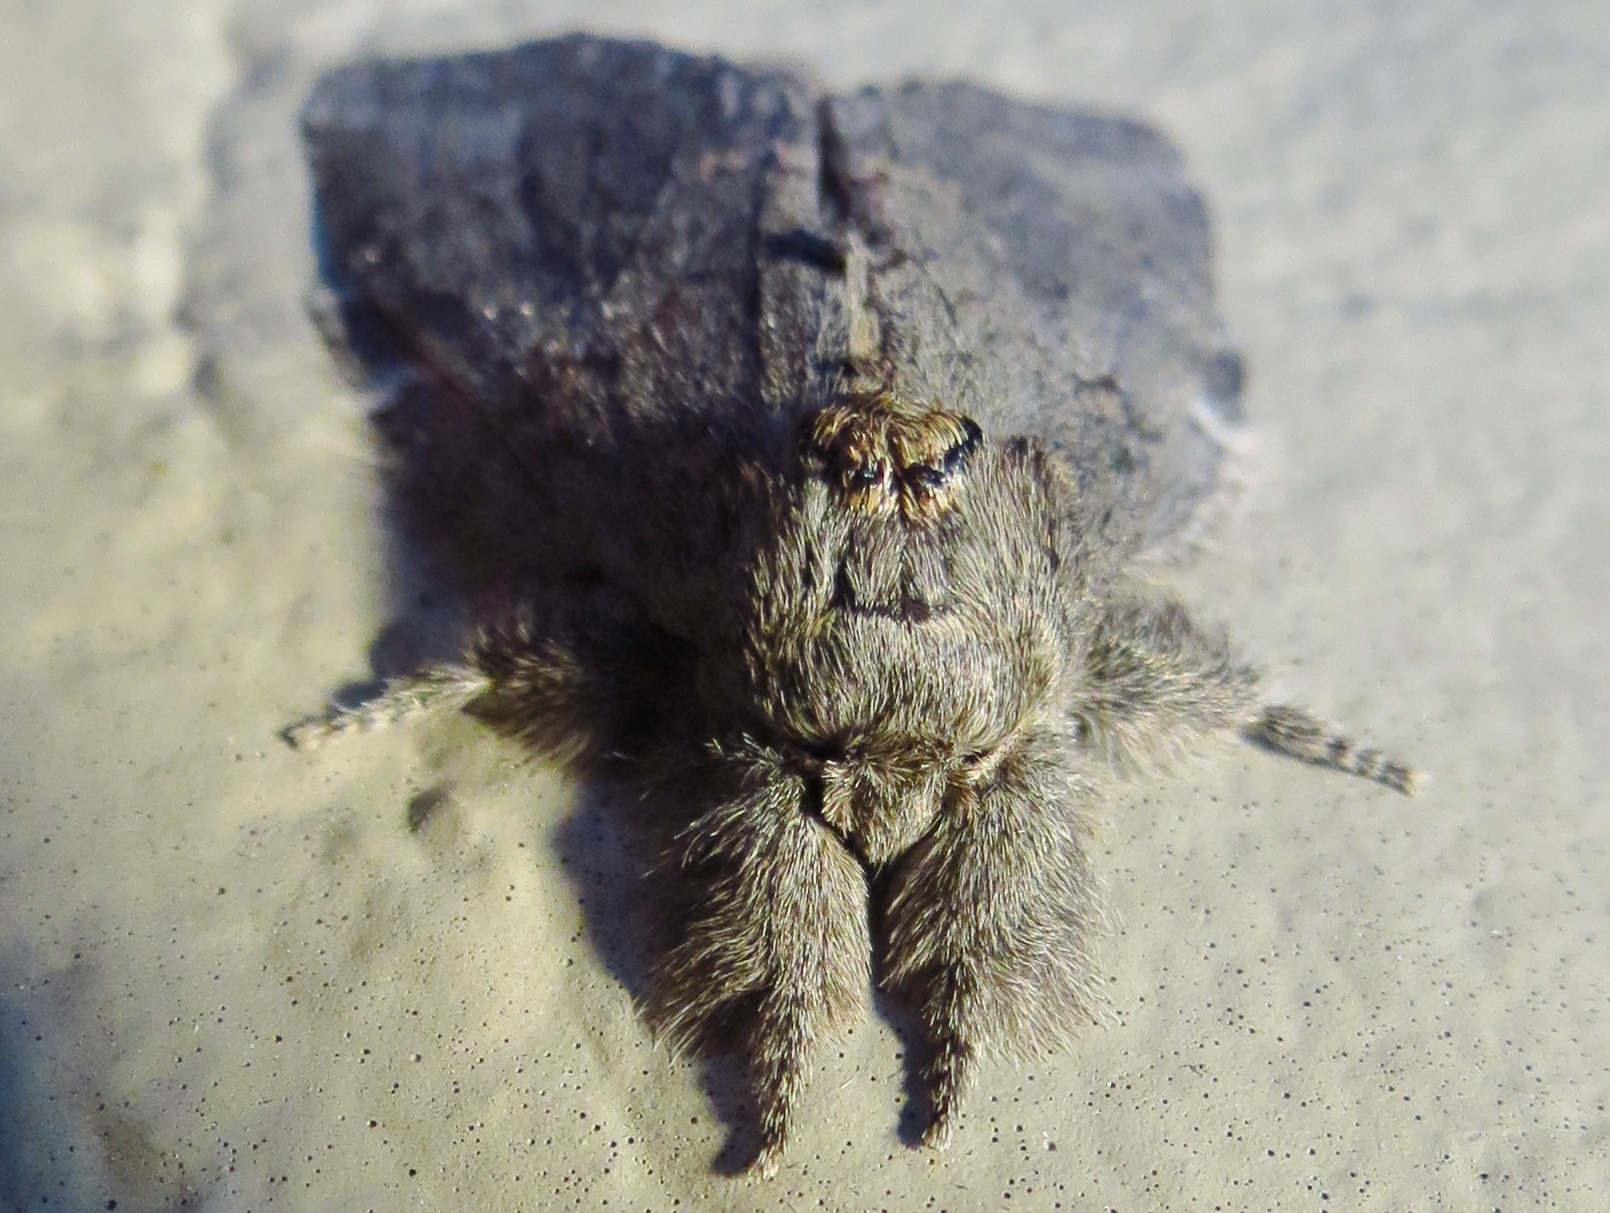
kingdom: Animalia
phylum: Arthropoda
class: Insecta
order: Lepidoptera
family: Notodontidae
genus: Peridea
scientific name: Peridea angulosa
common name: Angulose prominent
